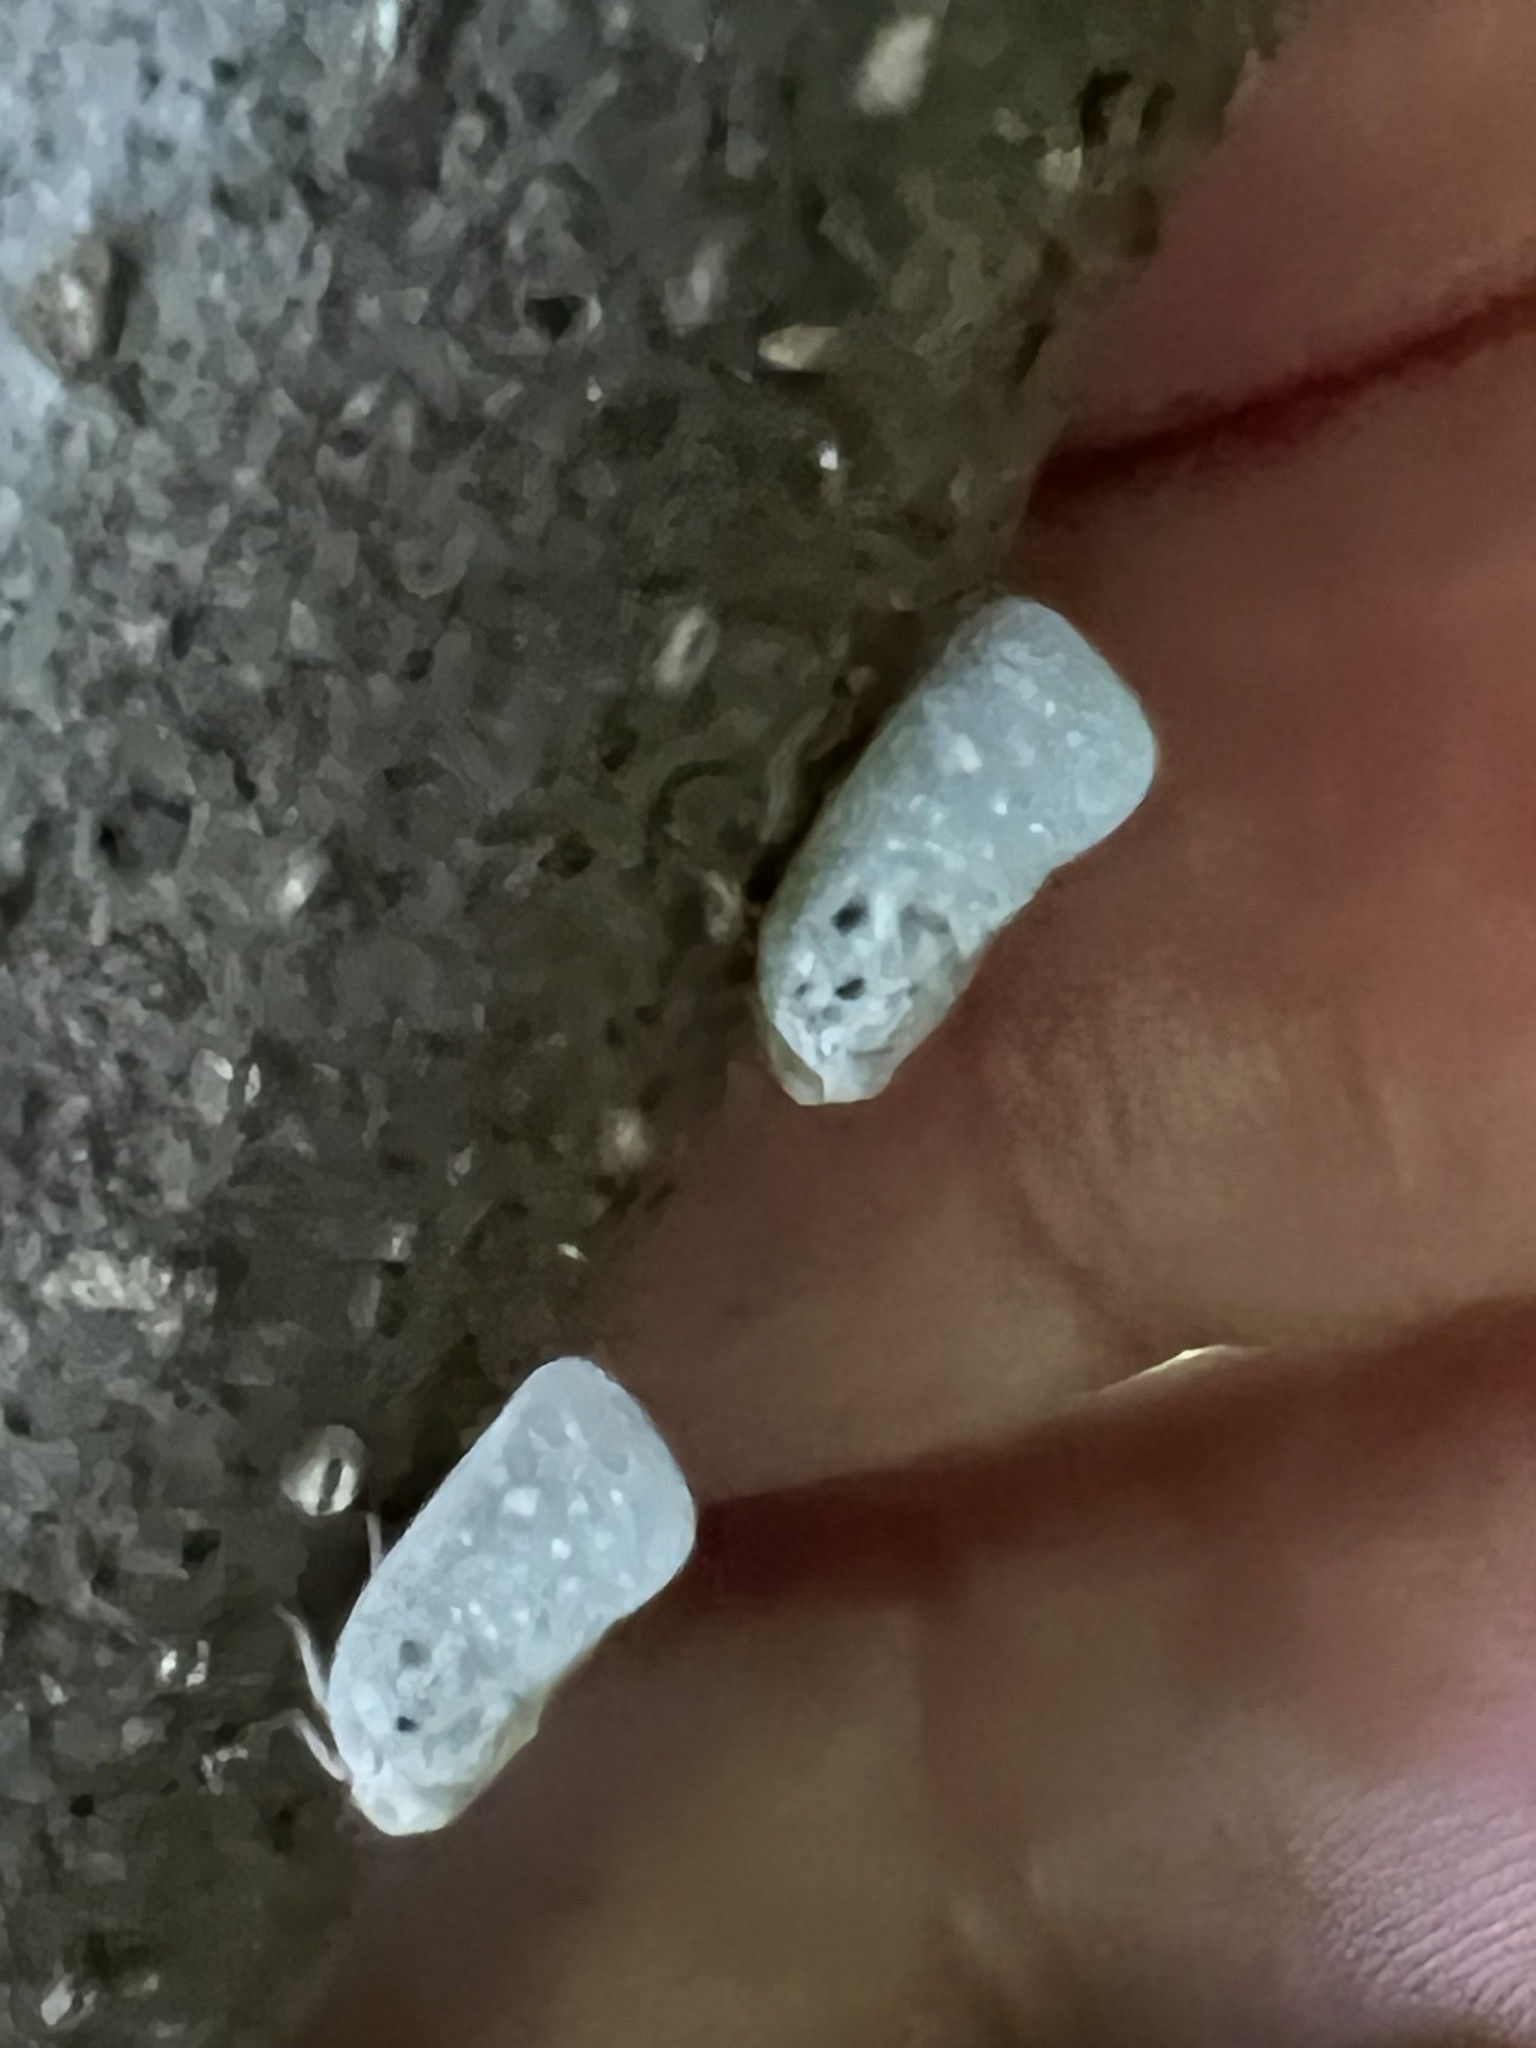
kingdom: Animalia
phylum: Arthropoda
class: Insecta
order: Hemiptera
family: Flatidae
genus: Metcalfa
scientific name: Metcalfa pruinosa
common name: Citrus flatid planthopper
